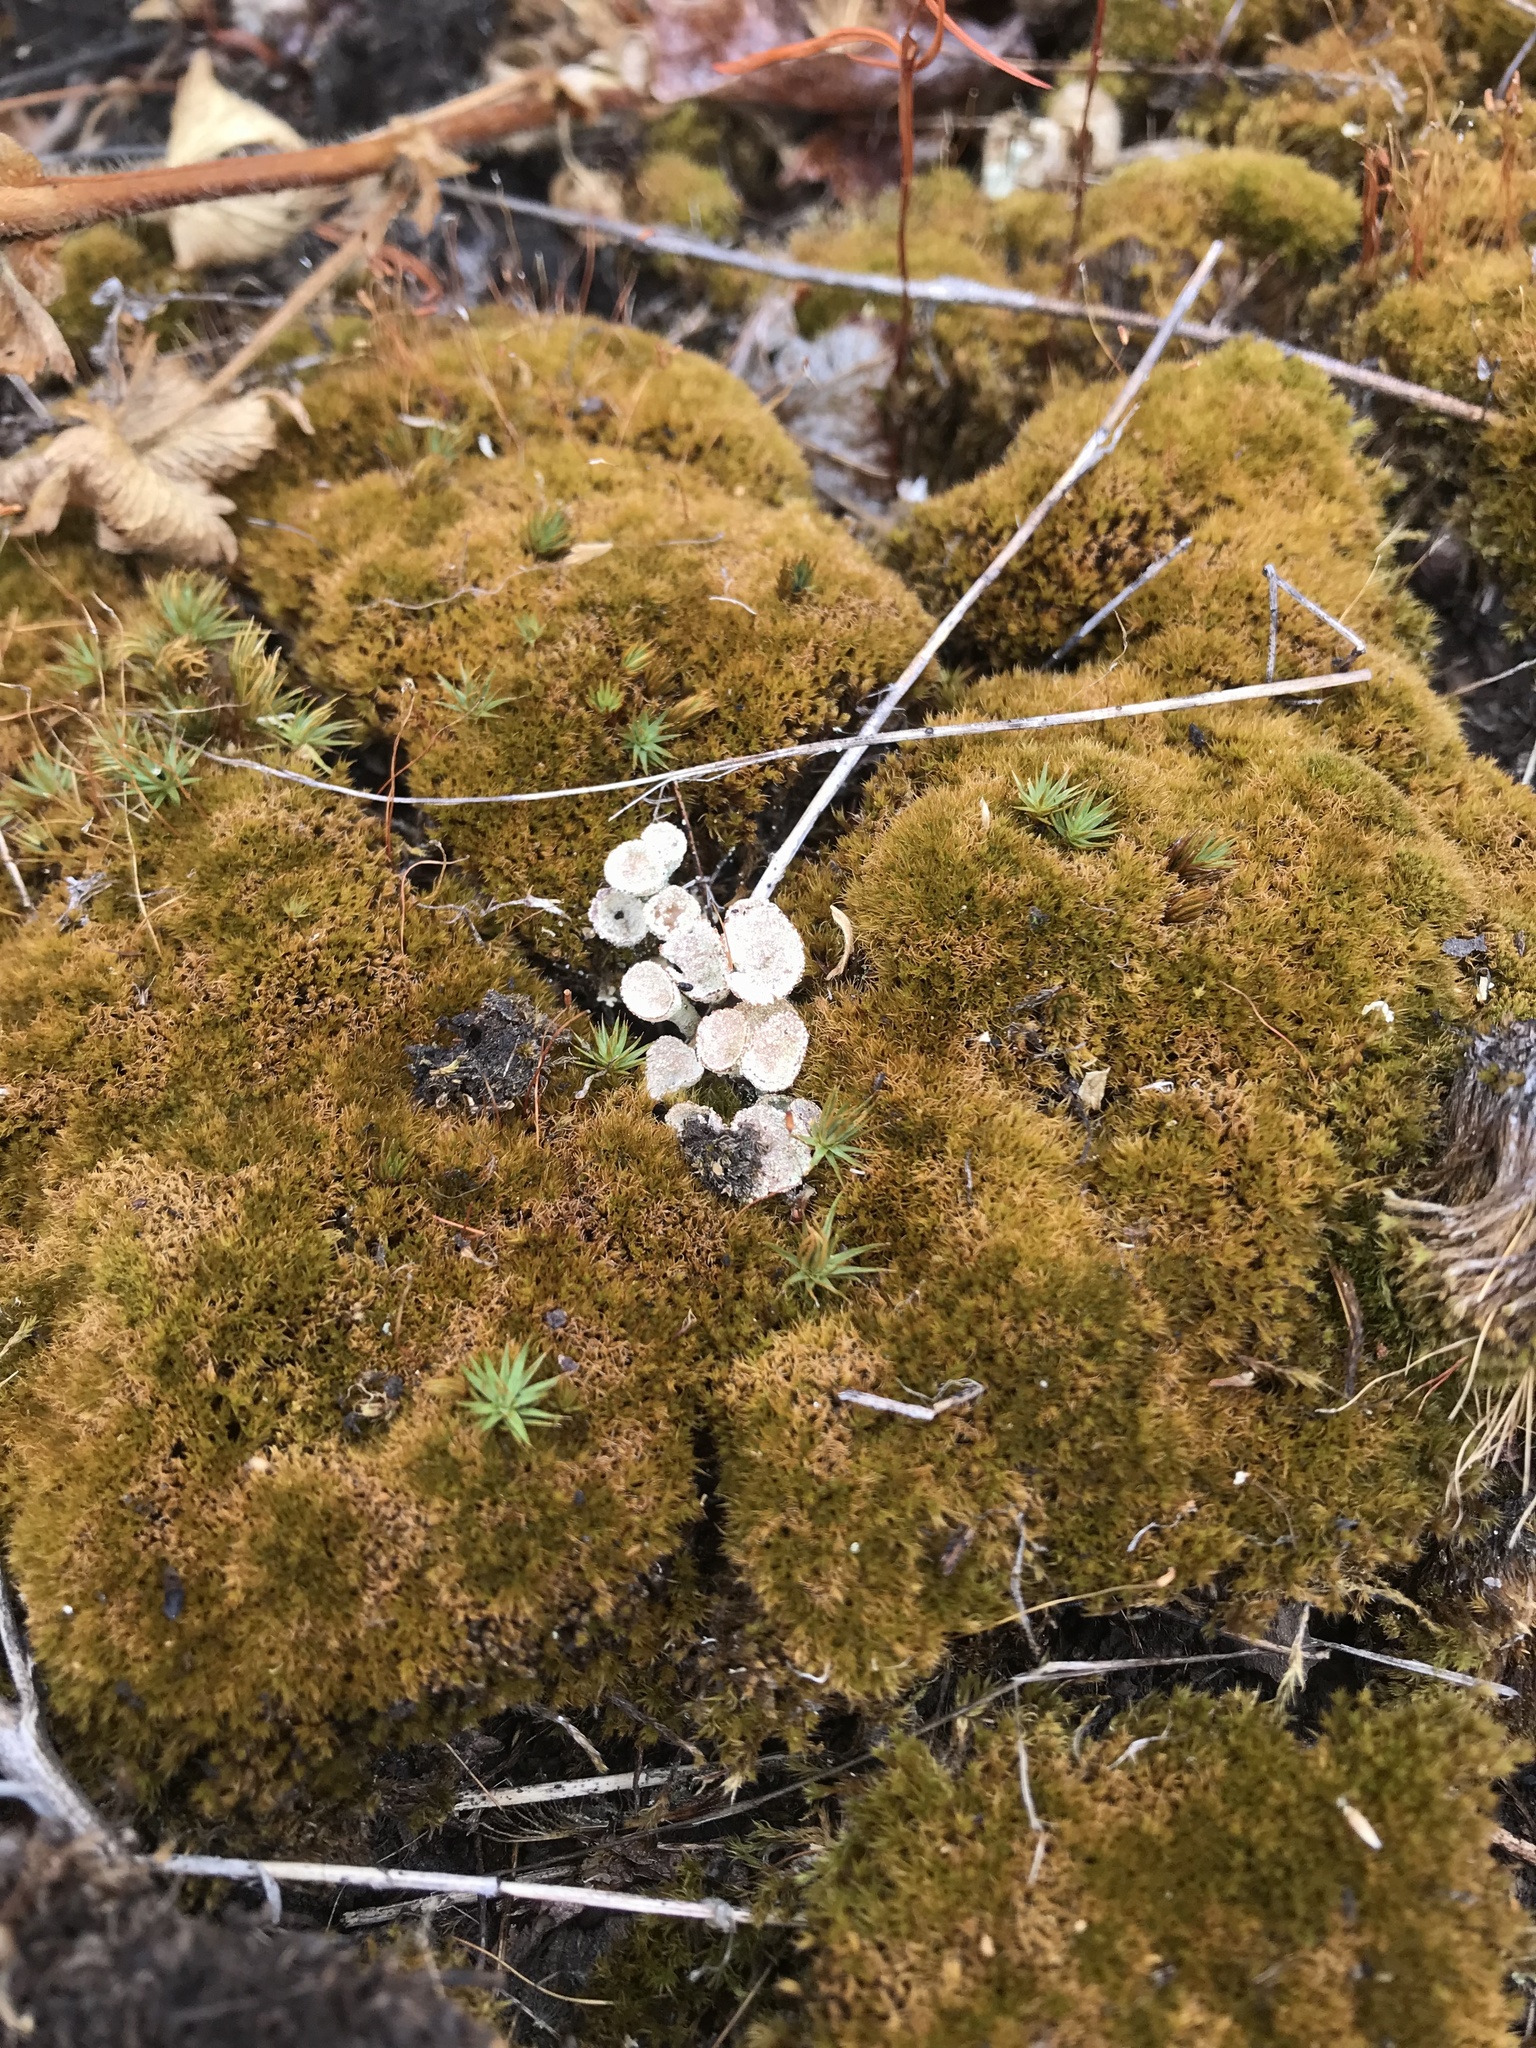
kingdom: Fungi
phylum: Ascomycota
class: Lecanoromycetes
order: Lecanorales
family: Cladoniaceae
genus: Cladonia
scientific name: Cladonia pyxidata
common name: Pebbled pixie cup
